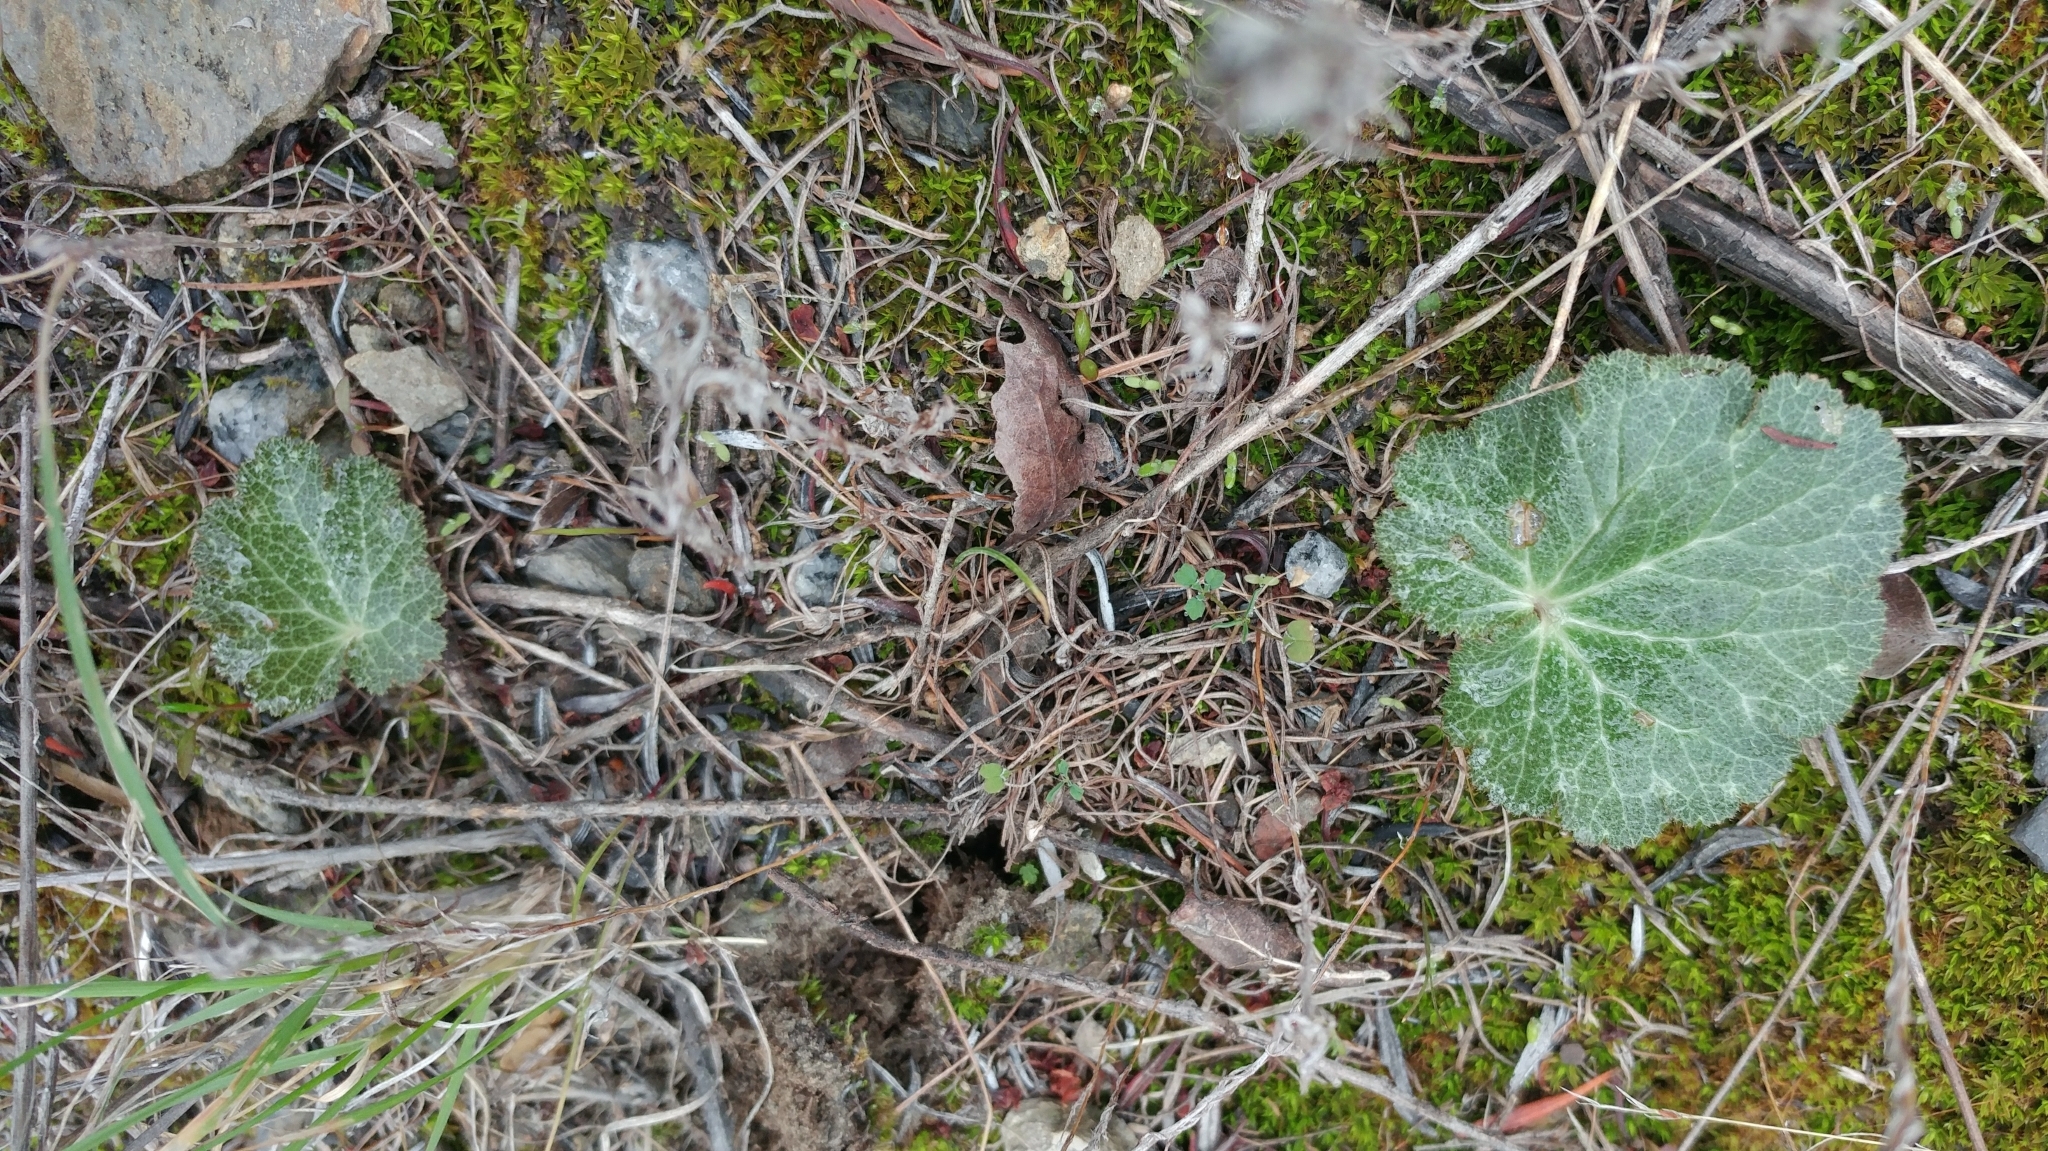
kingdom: Plantae
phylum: Tracheophyta
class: Magnoliopsida
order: Saxifragales
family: Saxifragaceae
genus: Jepsonia
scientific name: Jepsonia parryi
